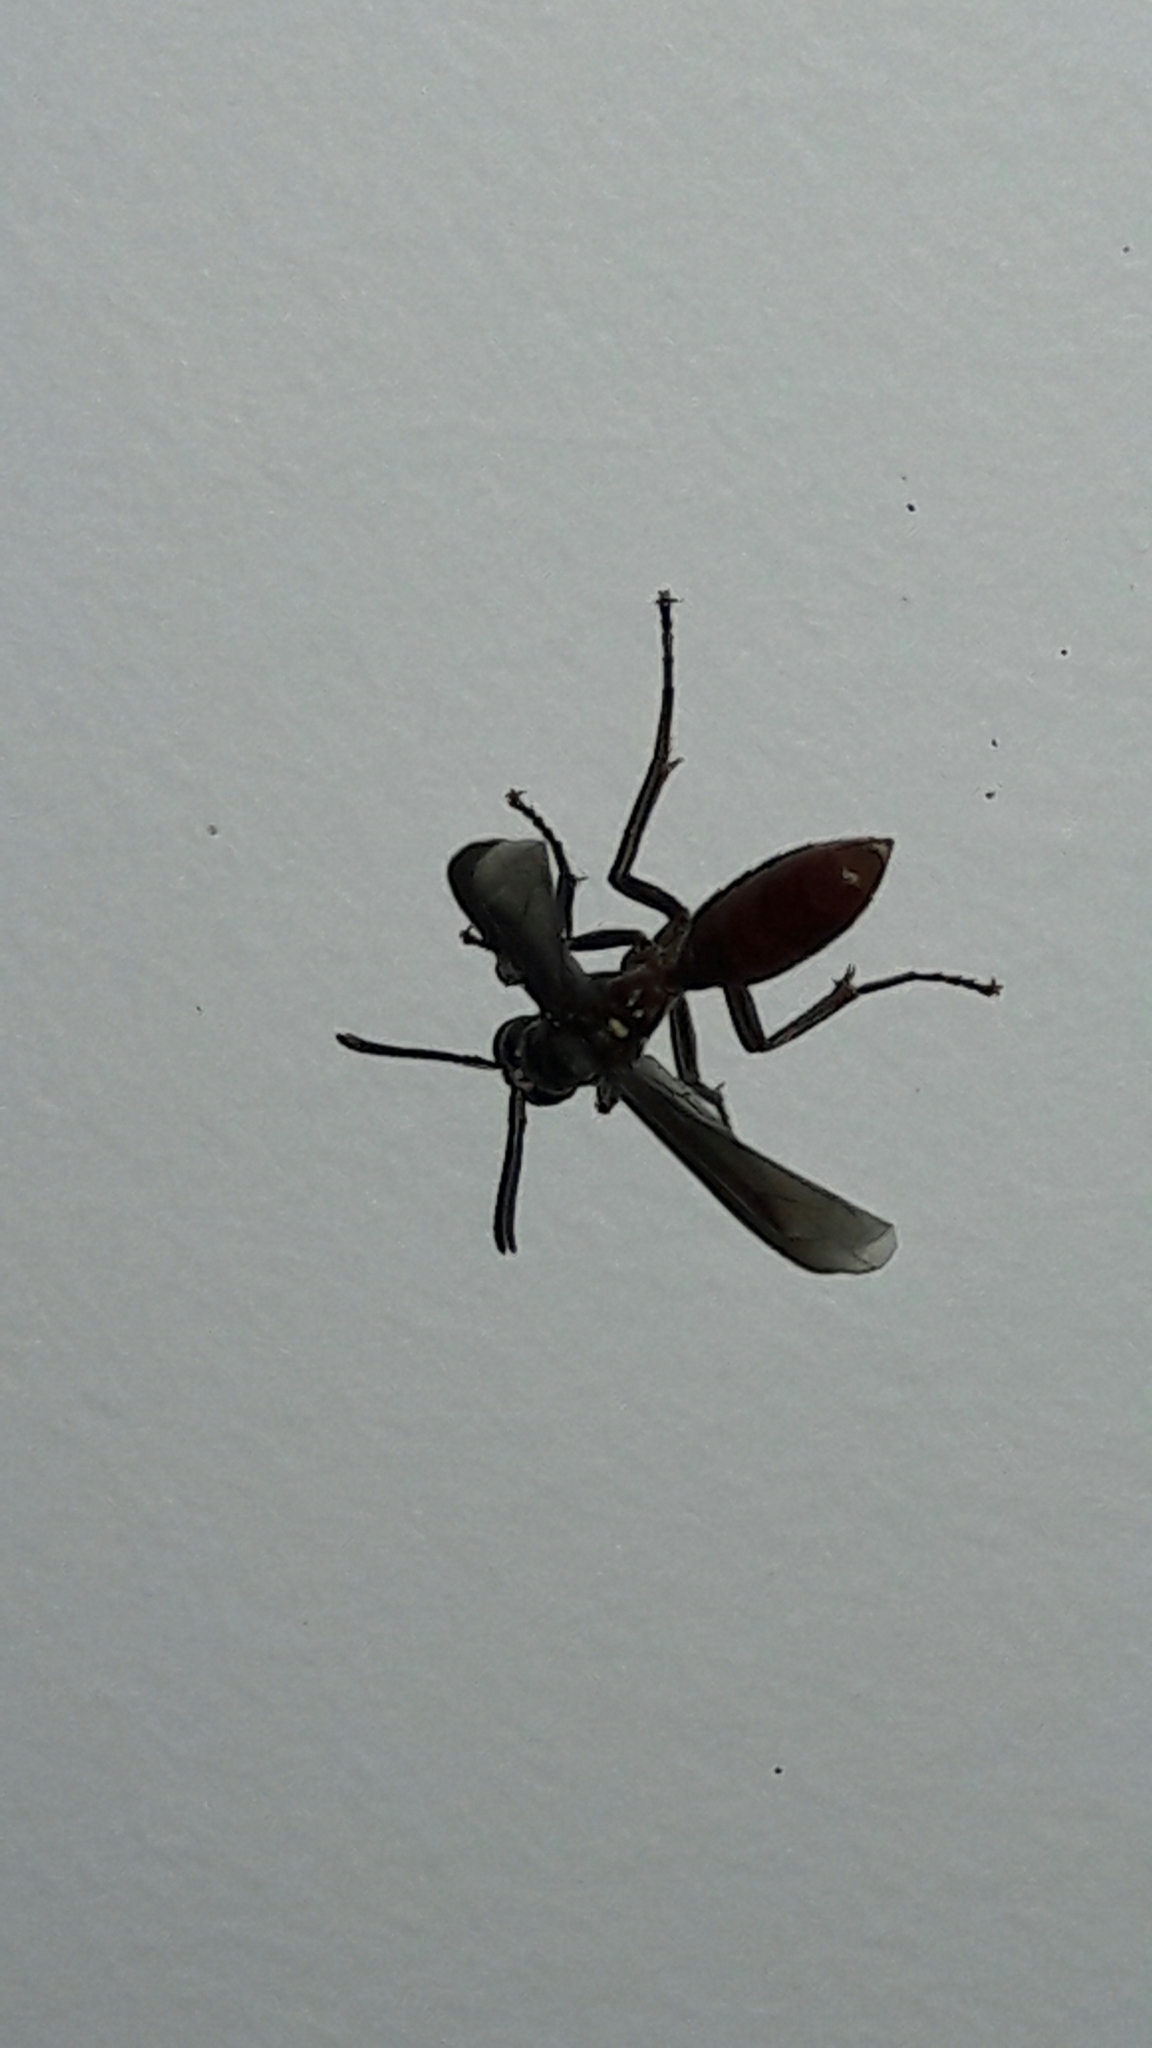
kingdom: Animalia
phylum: Arthropoda
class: Insecta
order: Hymenoptera
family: Vespidae
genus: Apoica
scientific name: Apoica thoracica
